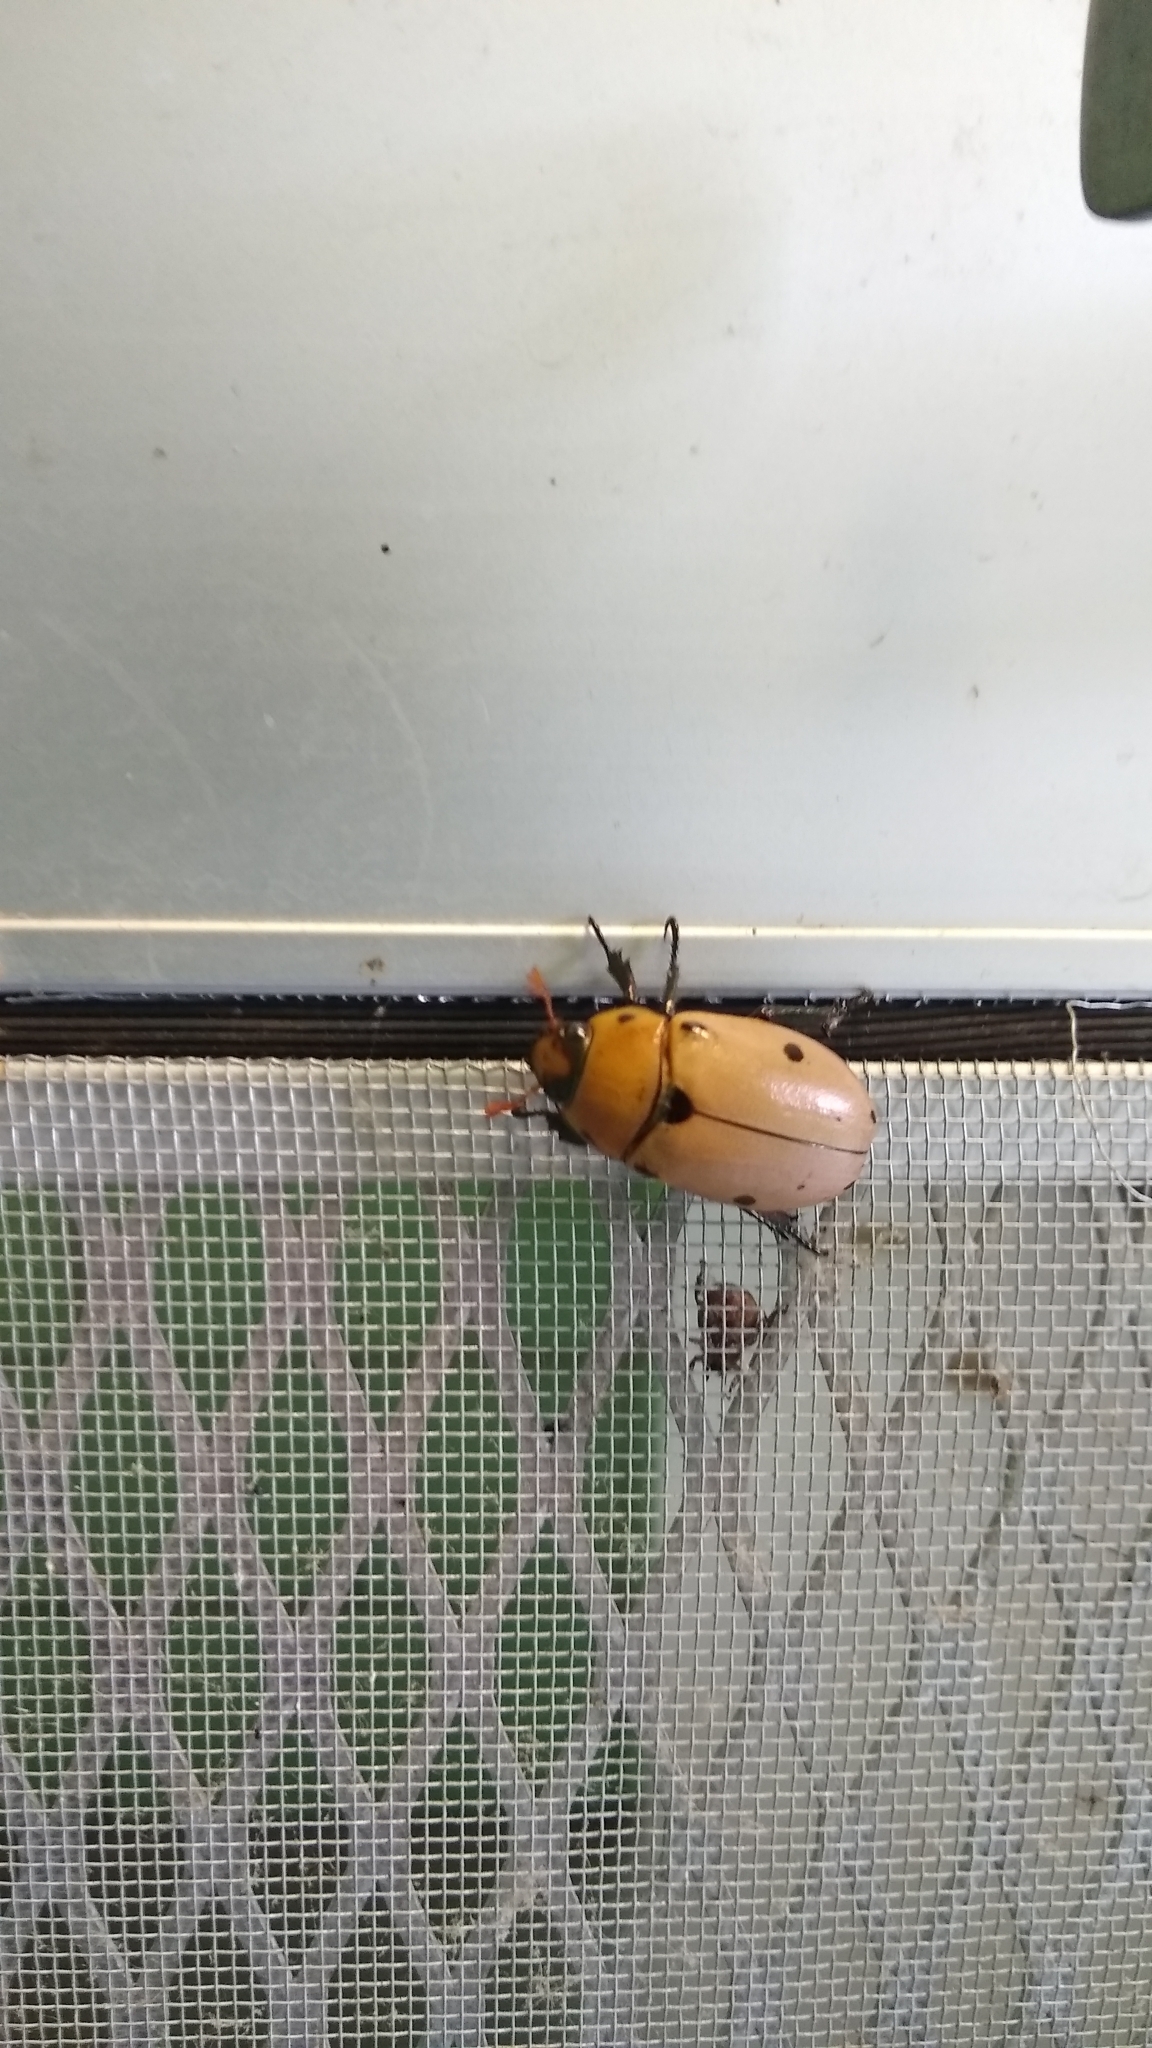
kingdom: Animalia
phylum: Arthropoda
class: Insecta
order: Coleoptera
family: Scarabaeidae
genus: Pelidnota
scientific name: Pelidnota punctata
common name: Grapevine beetle
